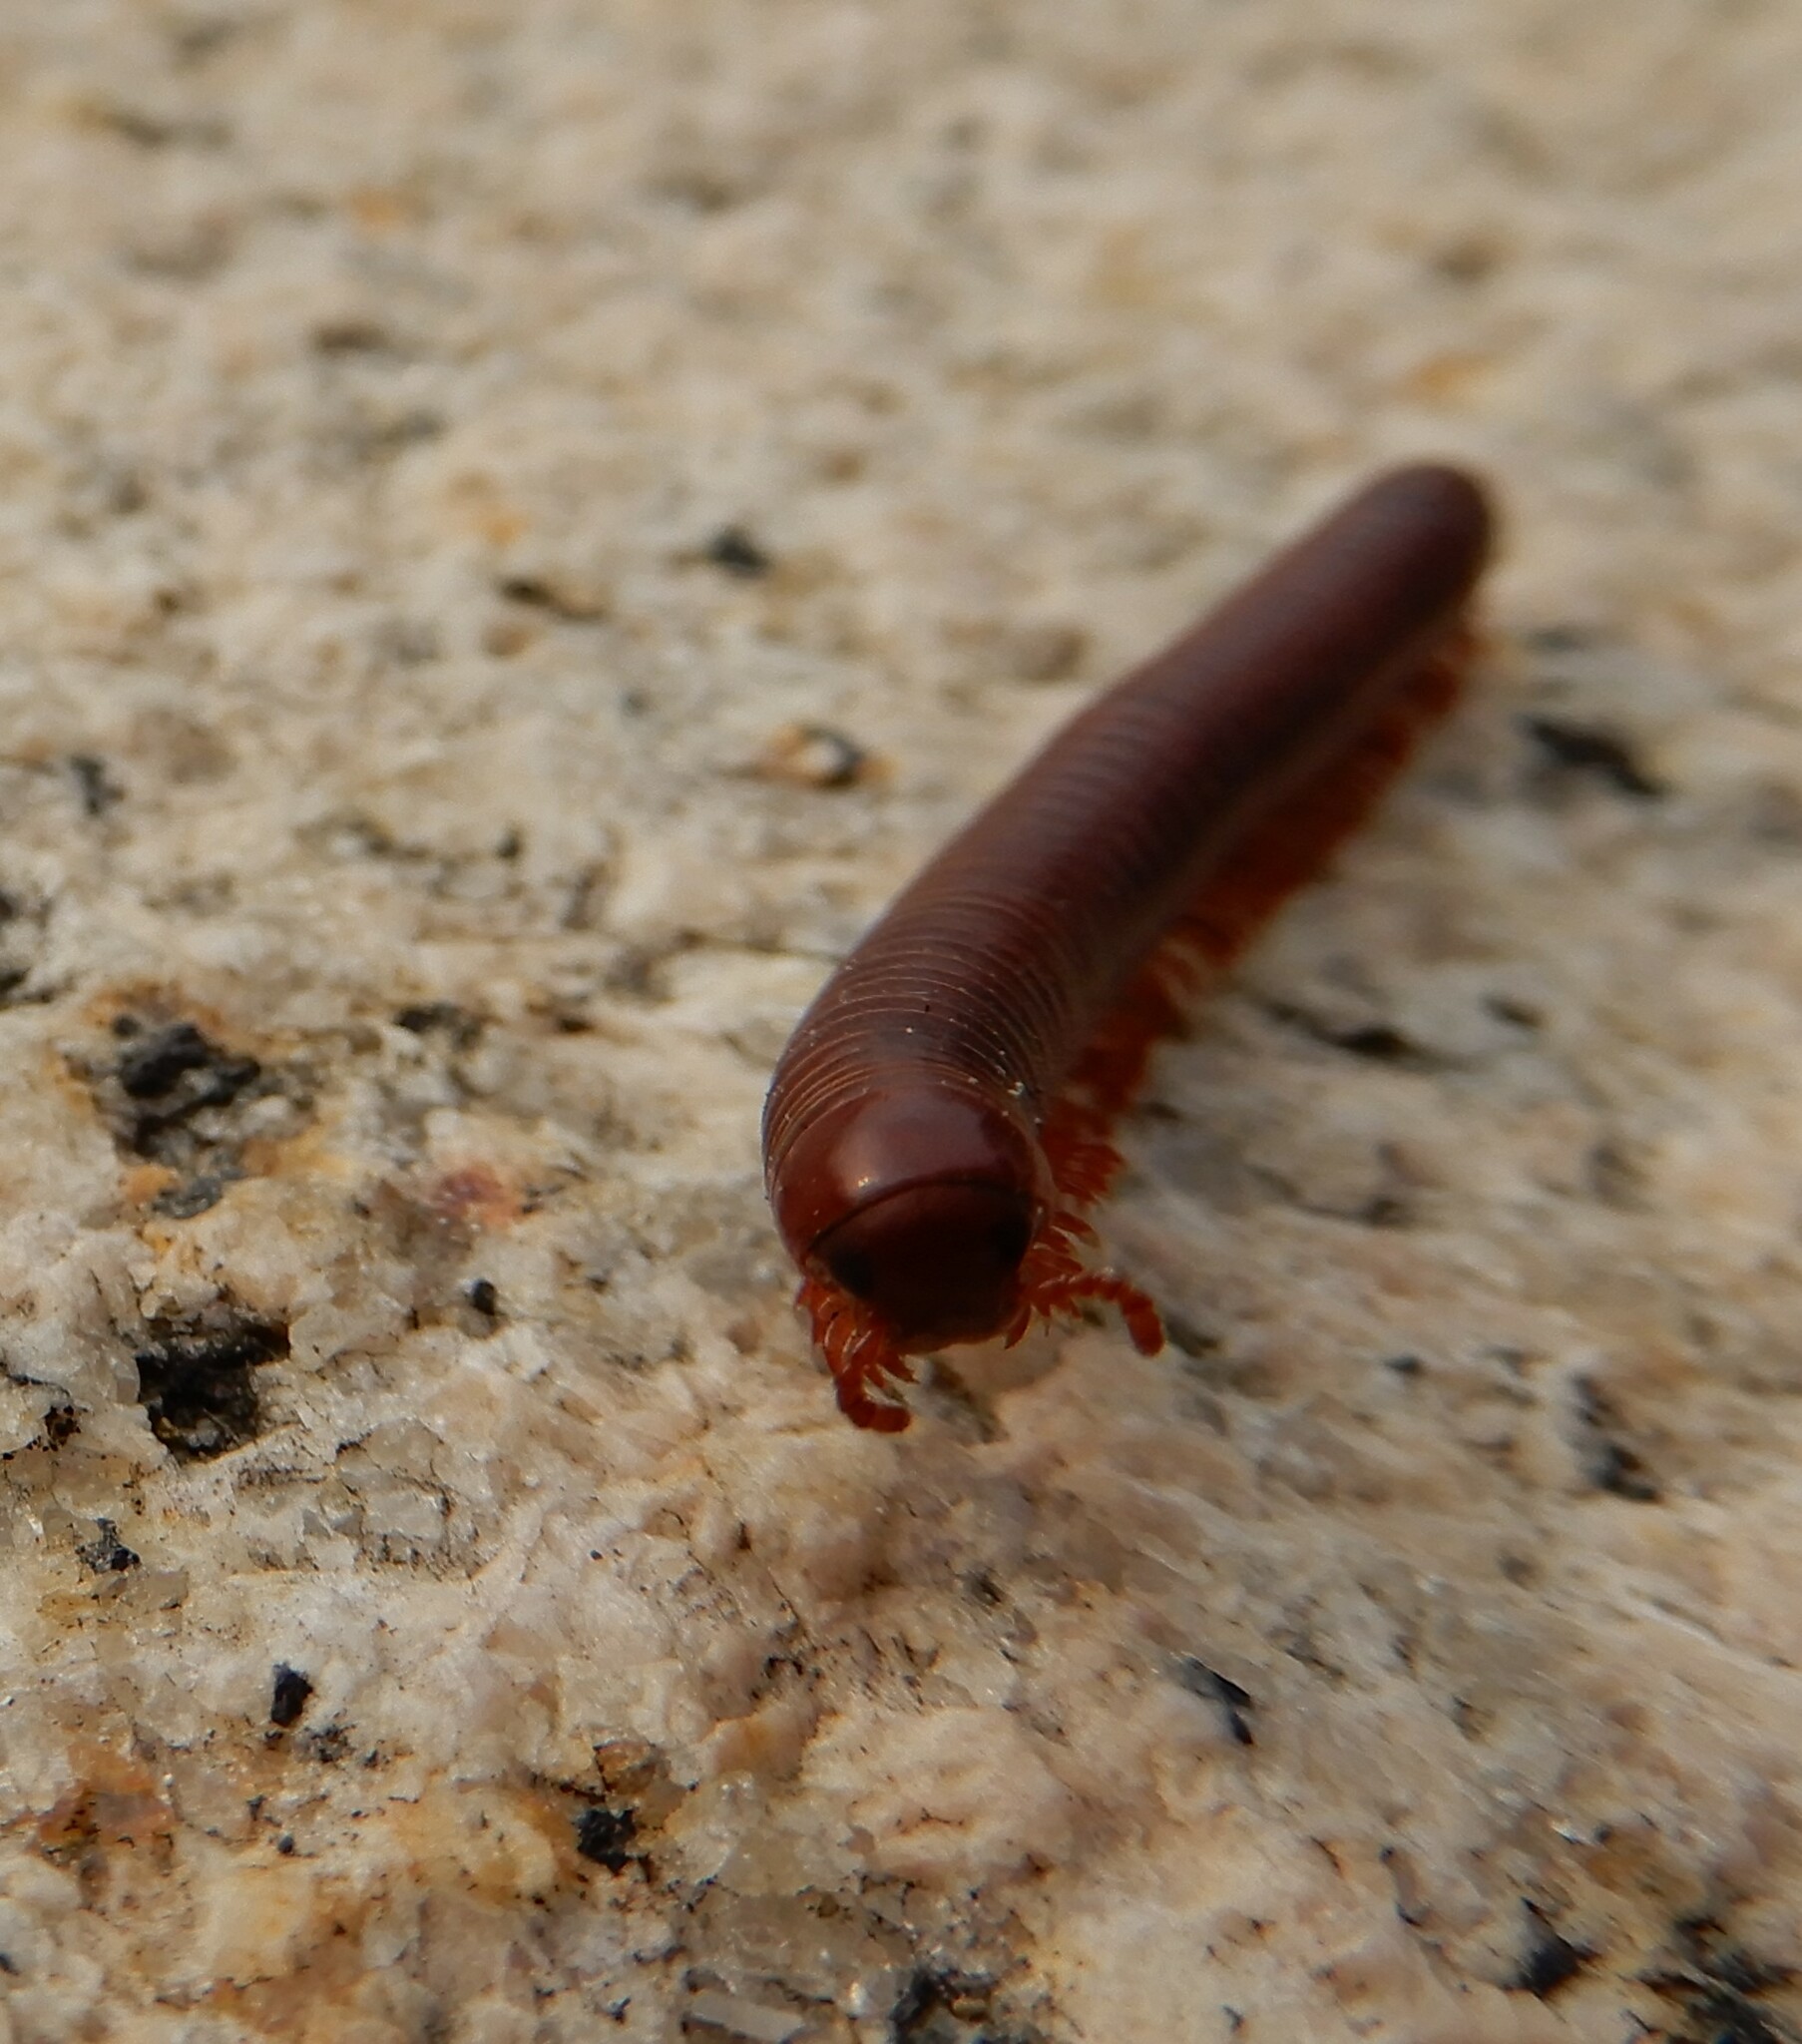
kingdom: Animalia
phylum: Arthropoda
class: Diplopoda
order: Spirobolida
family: Pachybolidae
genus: Trigoniulus
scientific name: Trigoniulus corallinus
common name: Millipede
